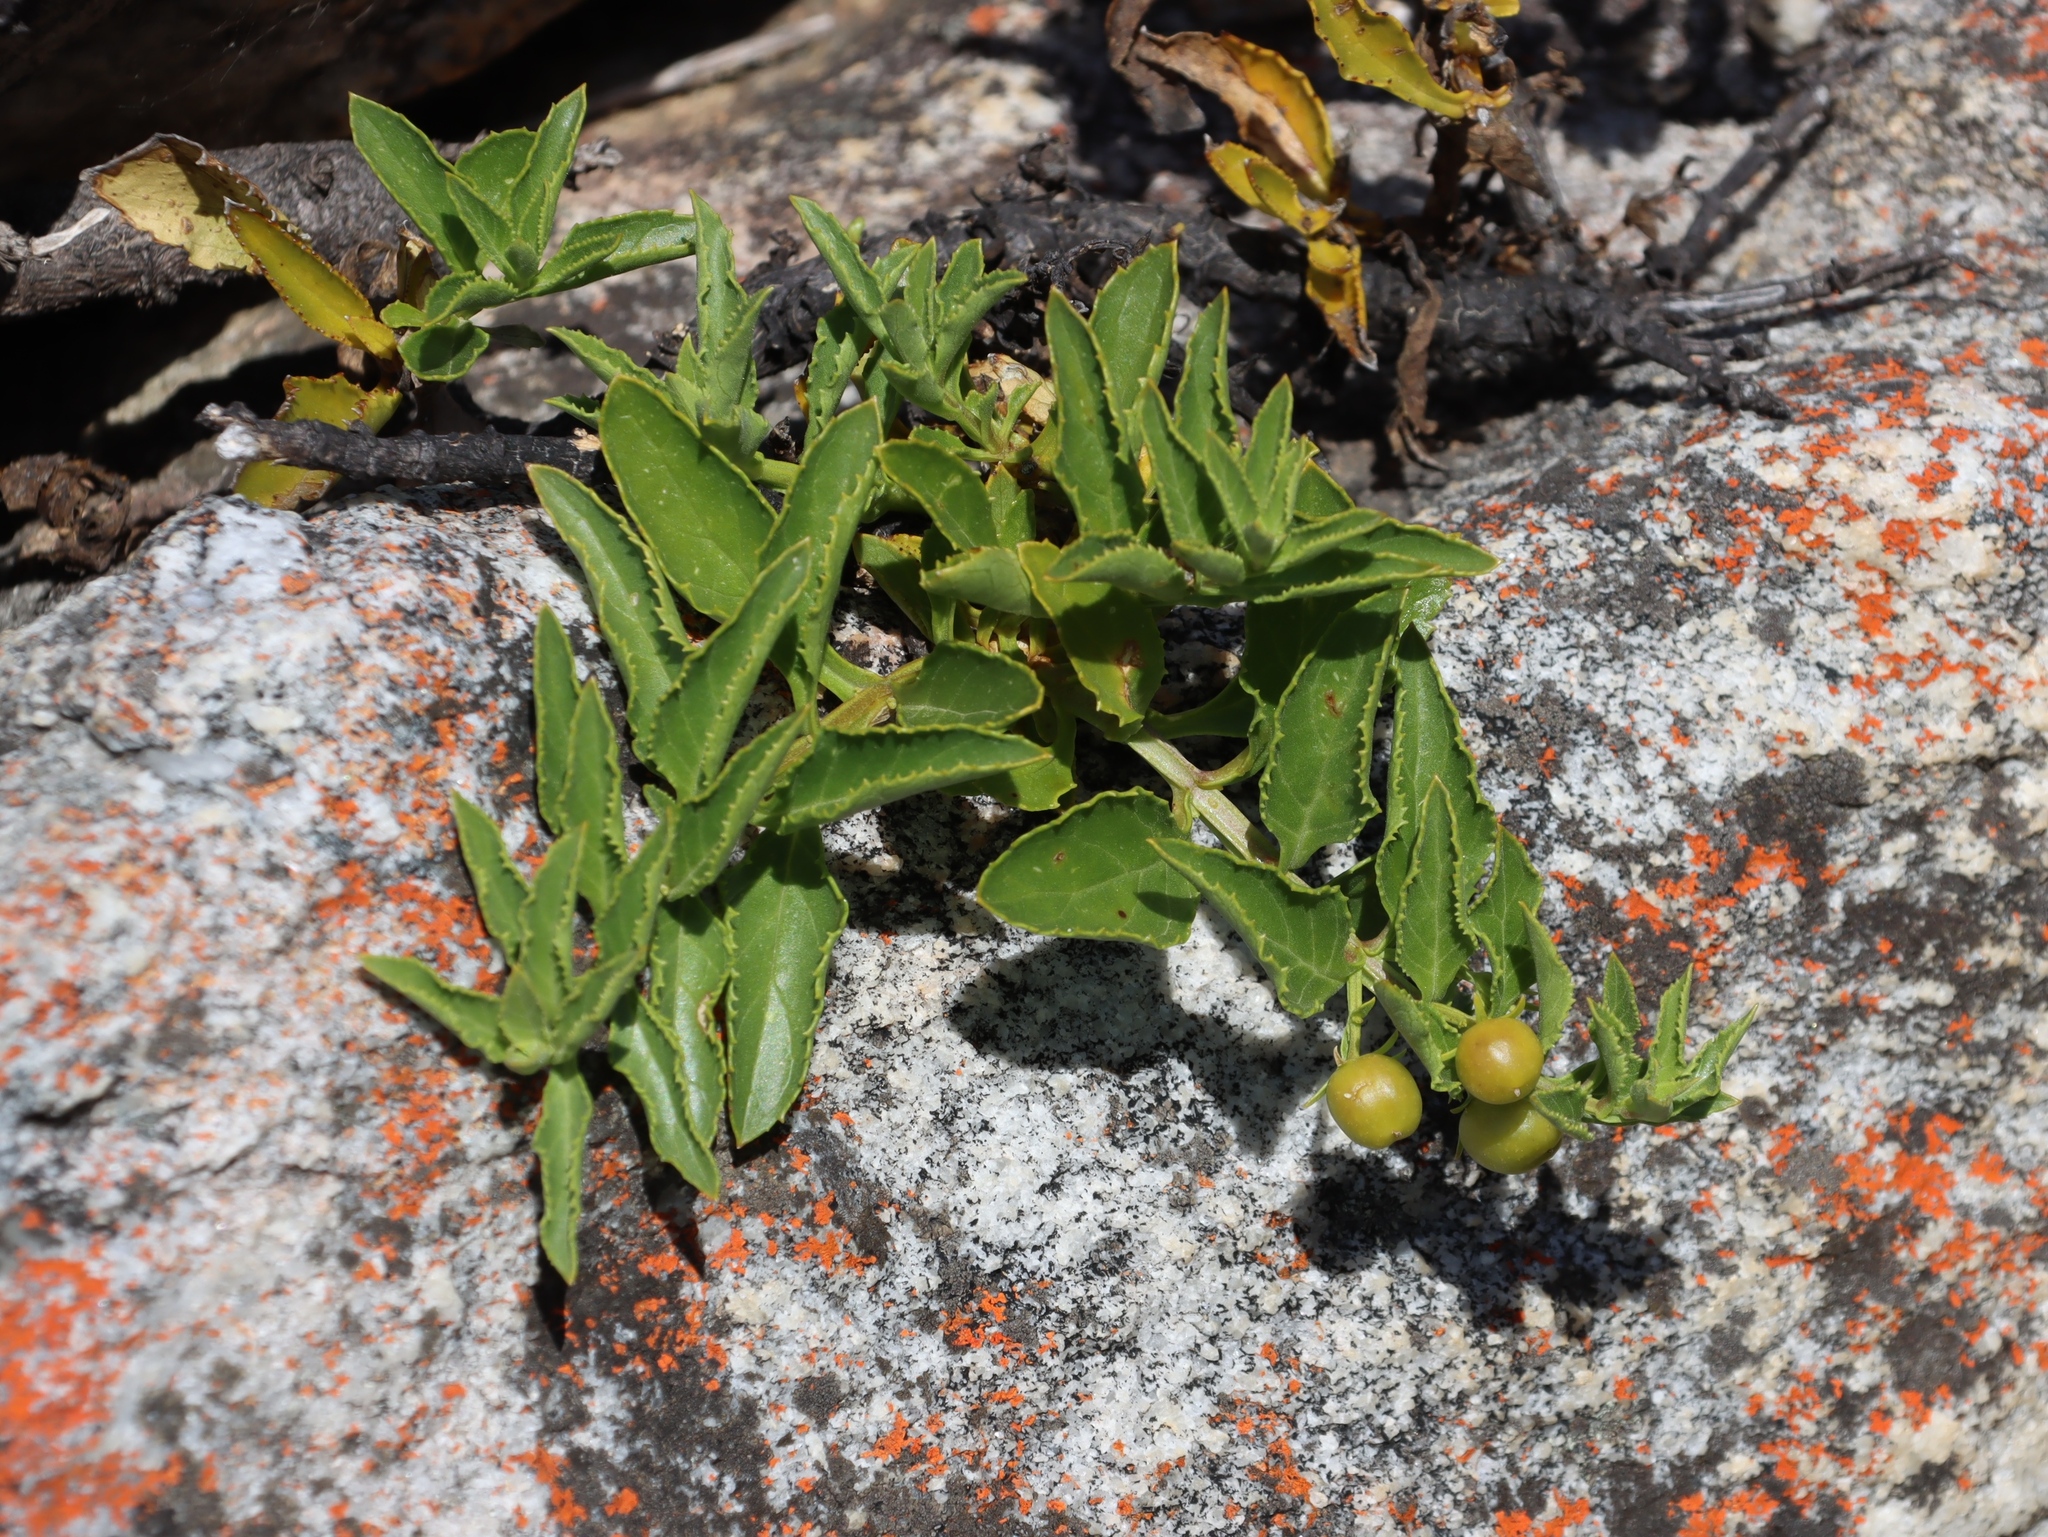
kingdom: Plantae
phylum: Tracheophyta
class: Magnoliopsida
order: Lamiales
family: Scrophulariaceae
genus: Teedia
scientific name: Teedia lucida
